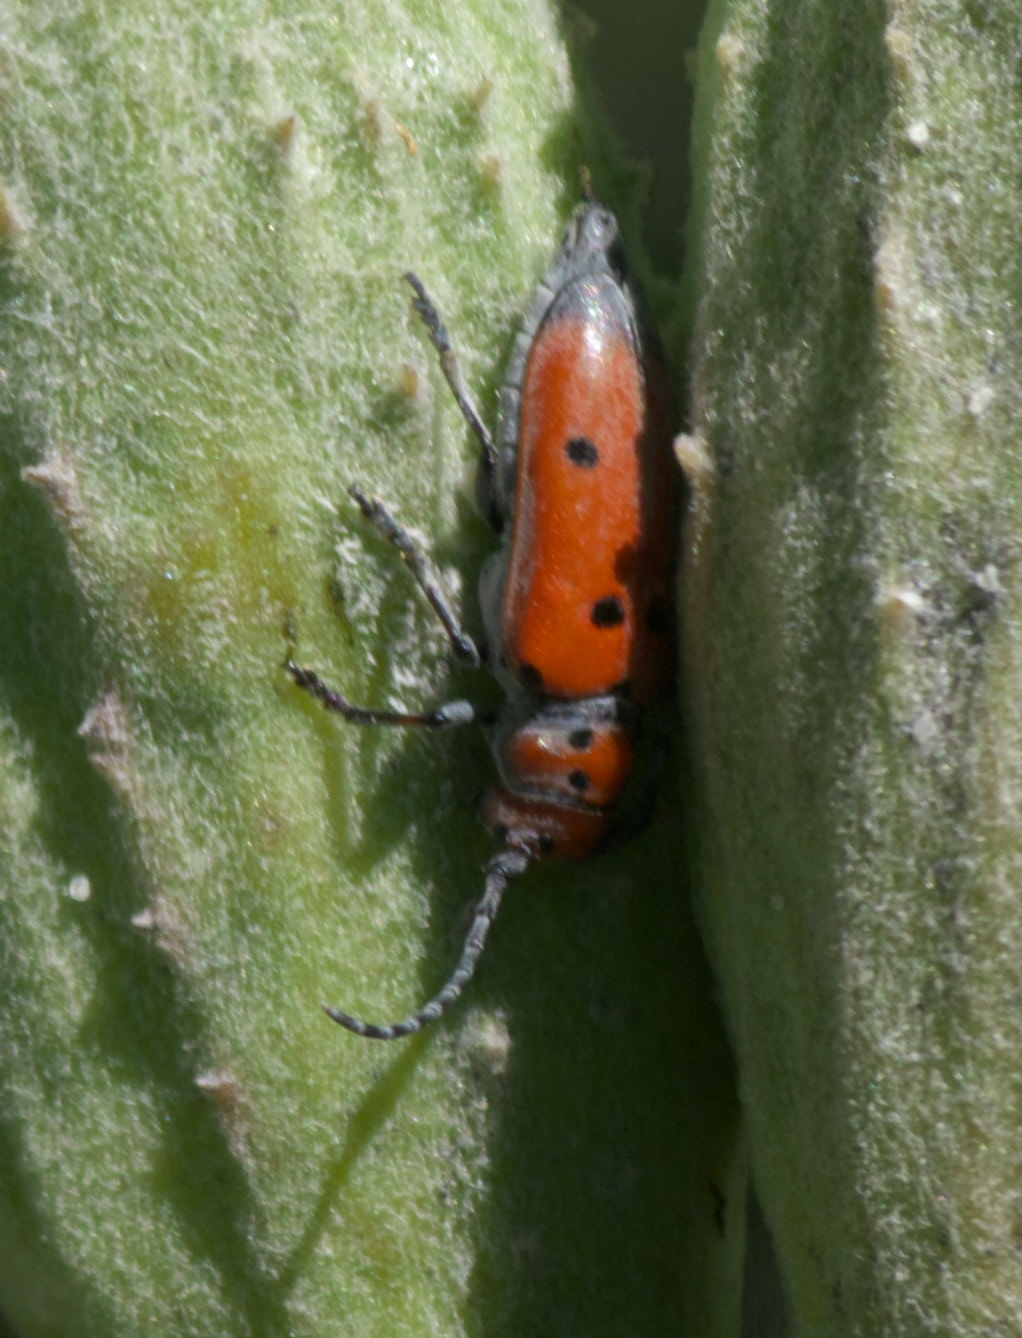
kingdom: Animalia
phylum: Arthropoda
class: Insecta
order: Coleoptera
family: Cerambycidae
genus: Tetraopes
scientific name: Tetraopes annulatus
